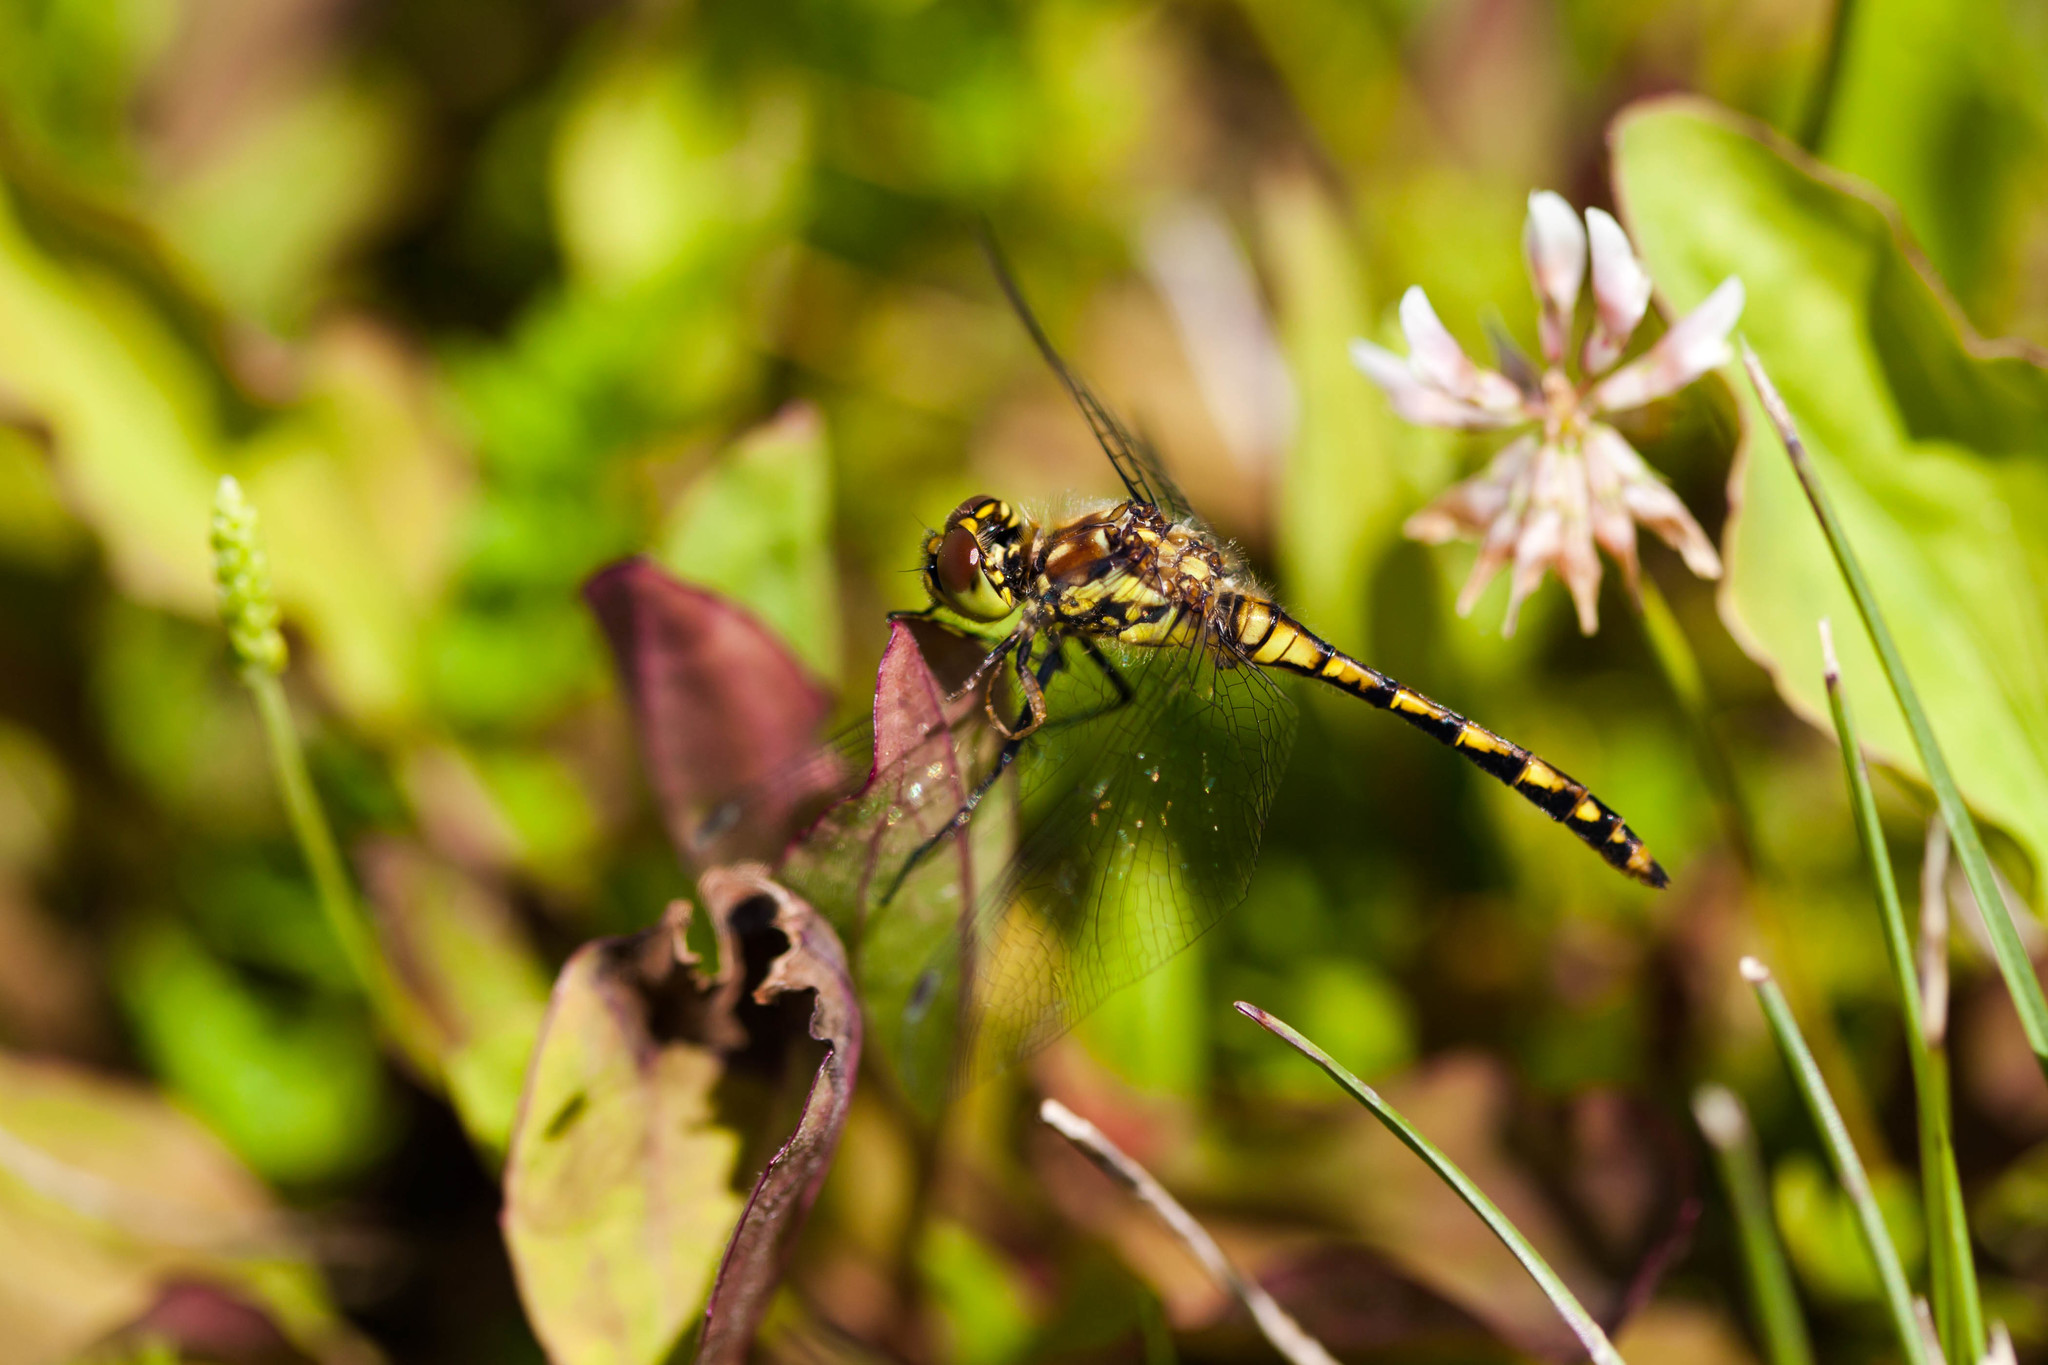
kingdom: Animalia
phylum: Arthropoda
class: Insecta
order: Odonata
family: Libellulidae
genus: Sympetrum
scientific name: Sympetrum danae
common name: Black darter
